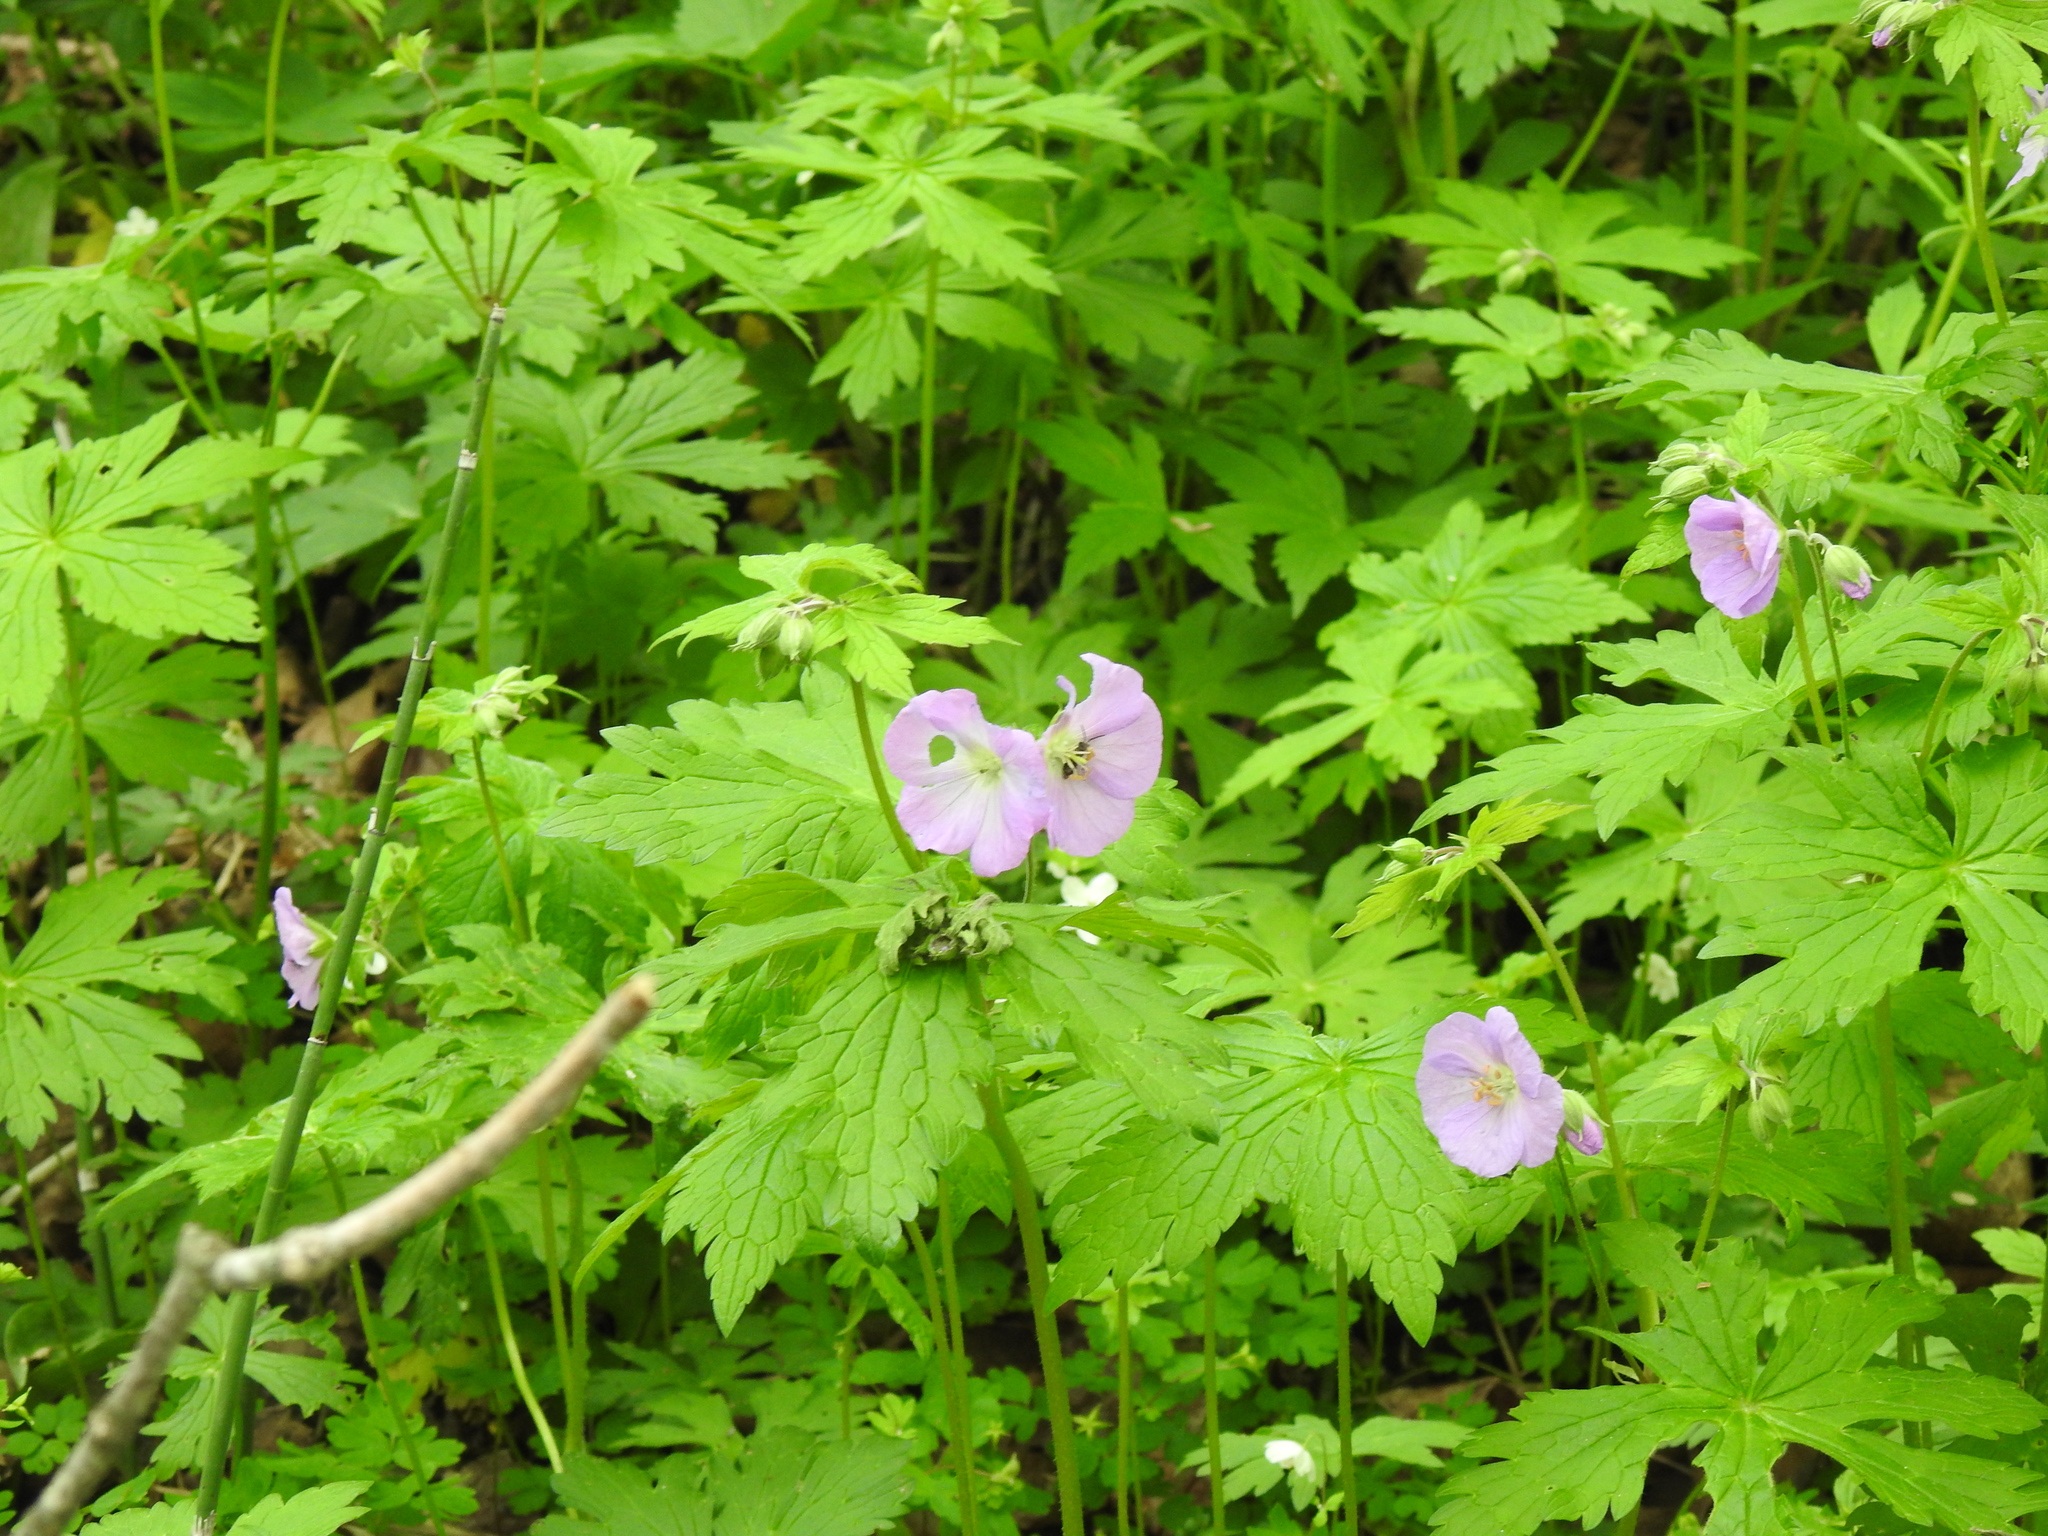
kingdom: Plantae
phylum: Tracheophyta
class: Magnoliopsida
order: Geraniales
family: Geraniaceae
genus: Geranium
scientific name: Geranium maculatum
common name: Spotted geranium
